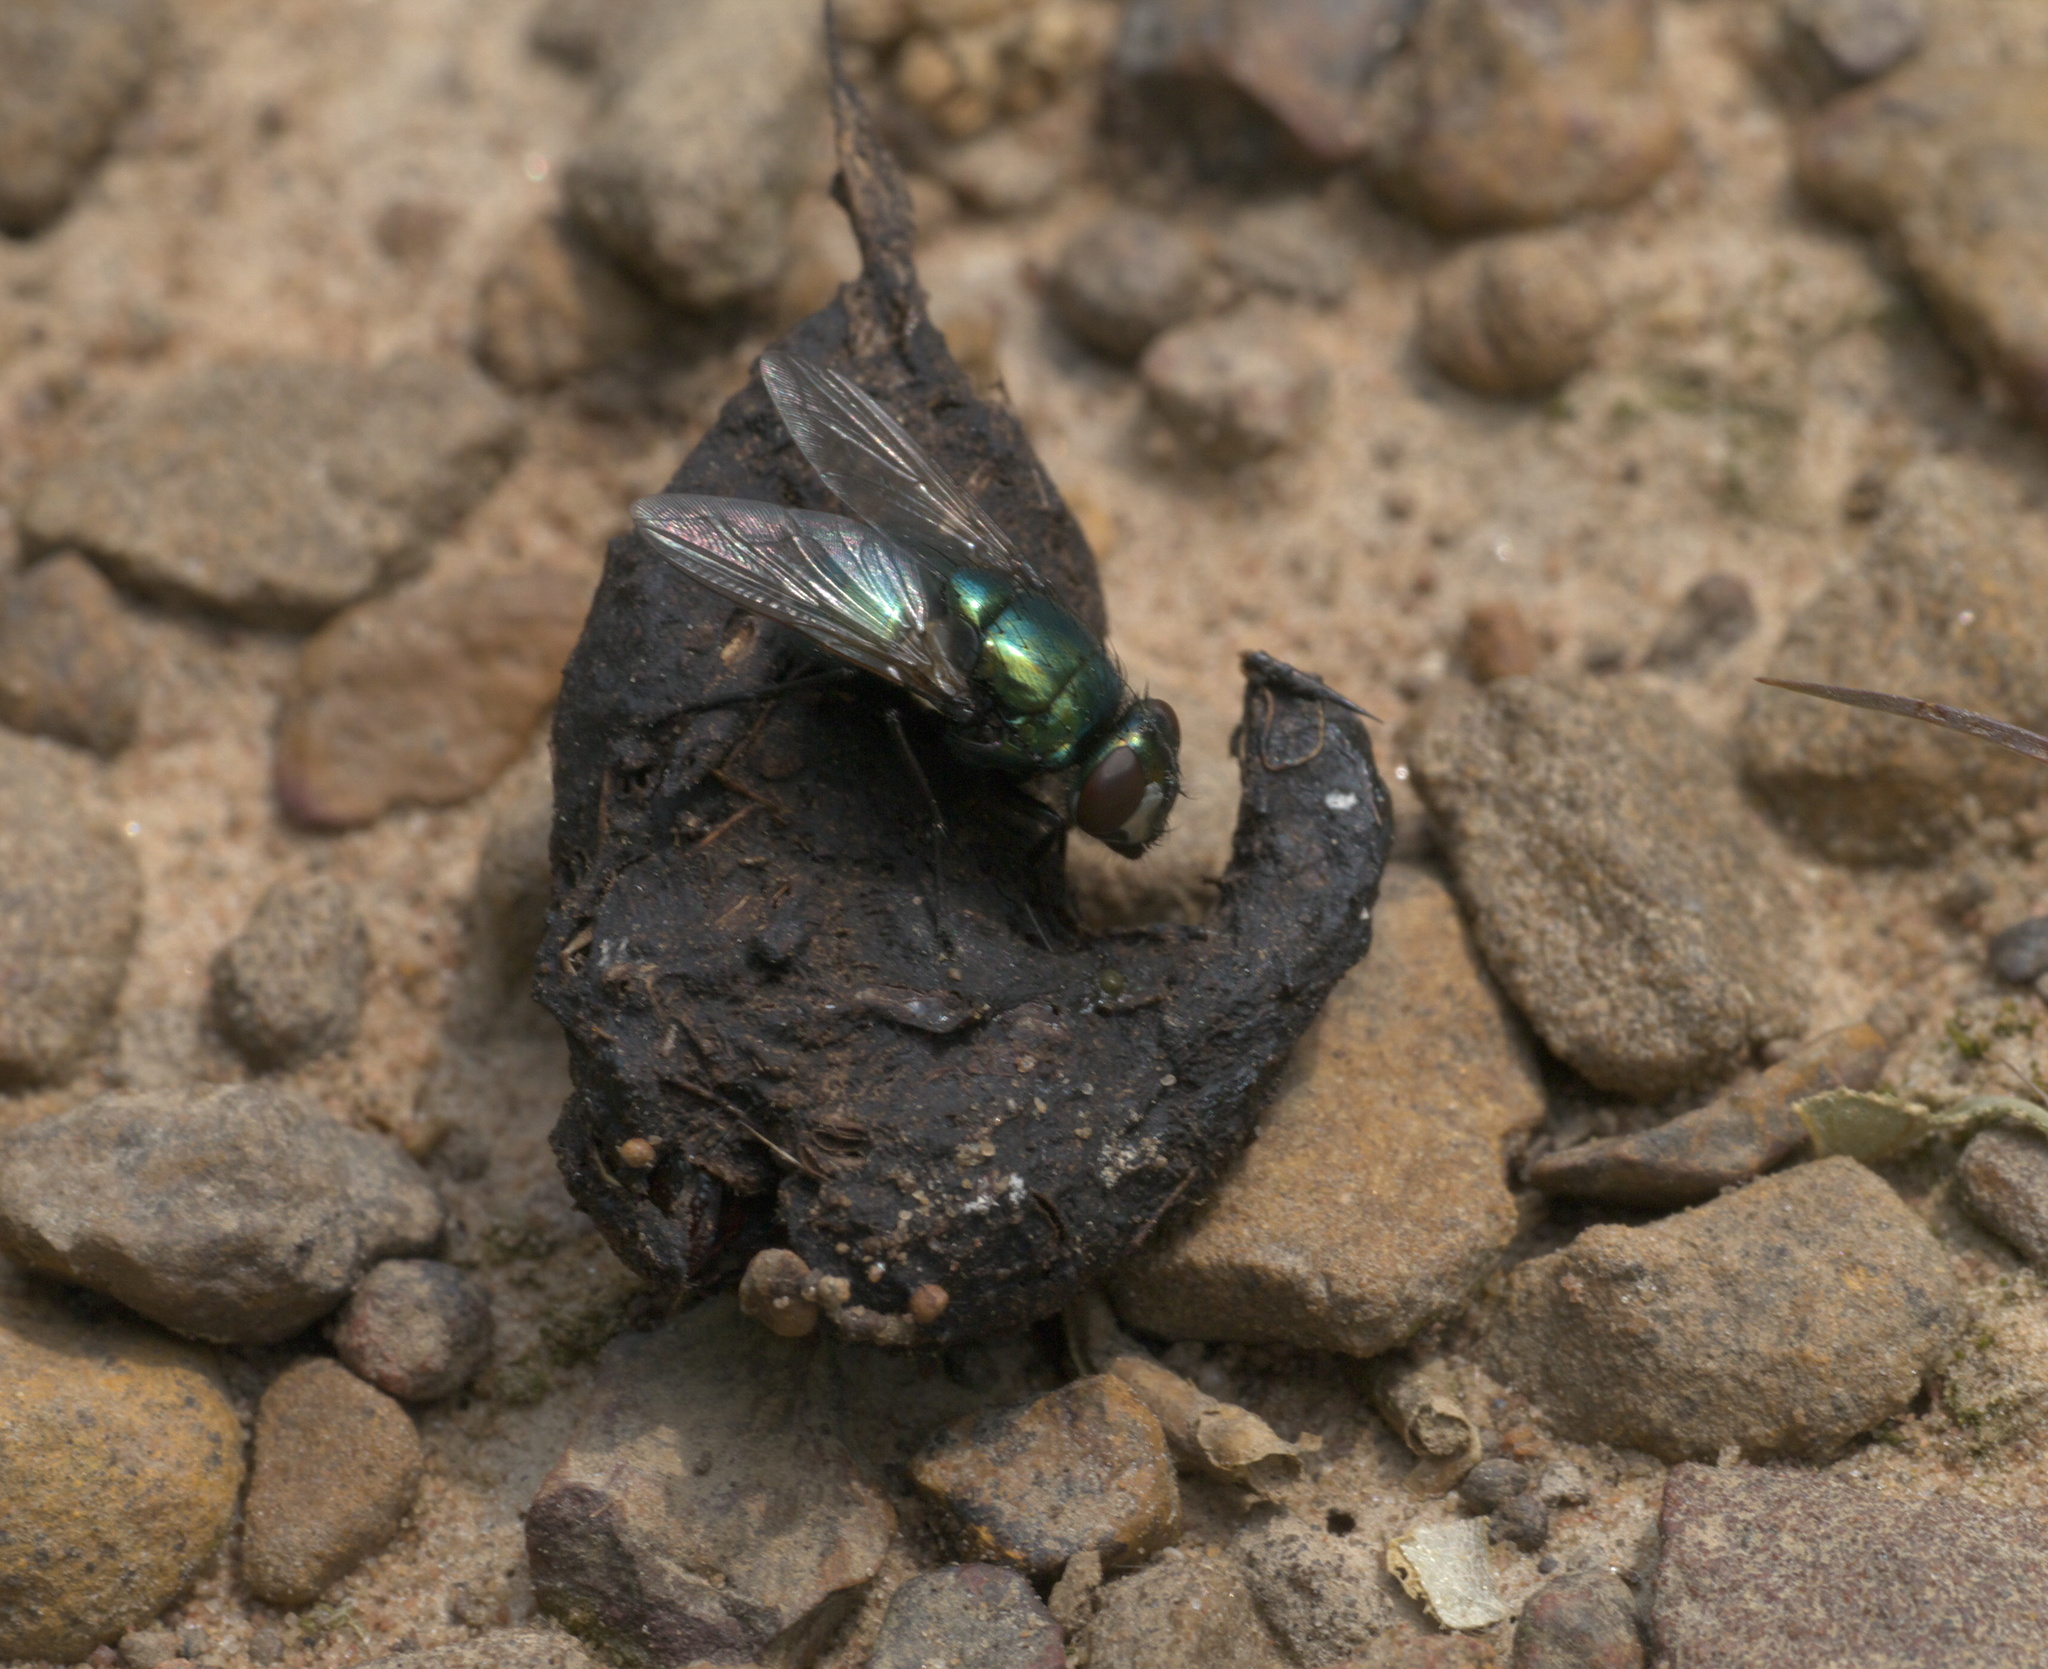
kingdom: Animalia
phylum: Arthropoda
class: Insecta
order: Diptera
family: Muscidae
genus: Neomyia
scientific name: Neomyia cornicina
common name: House fly
